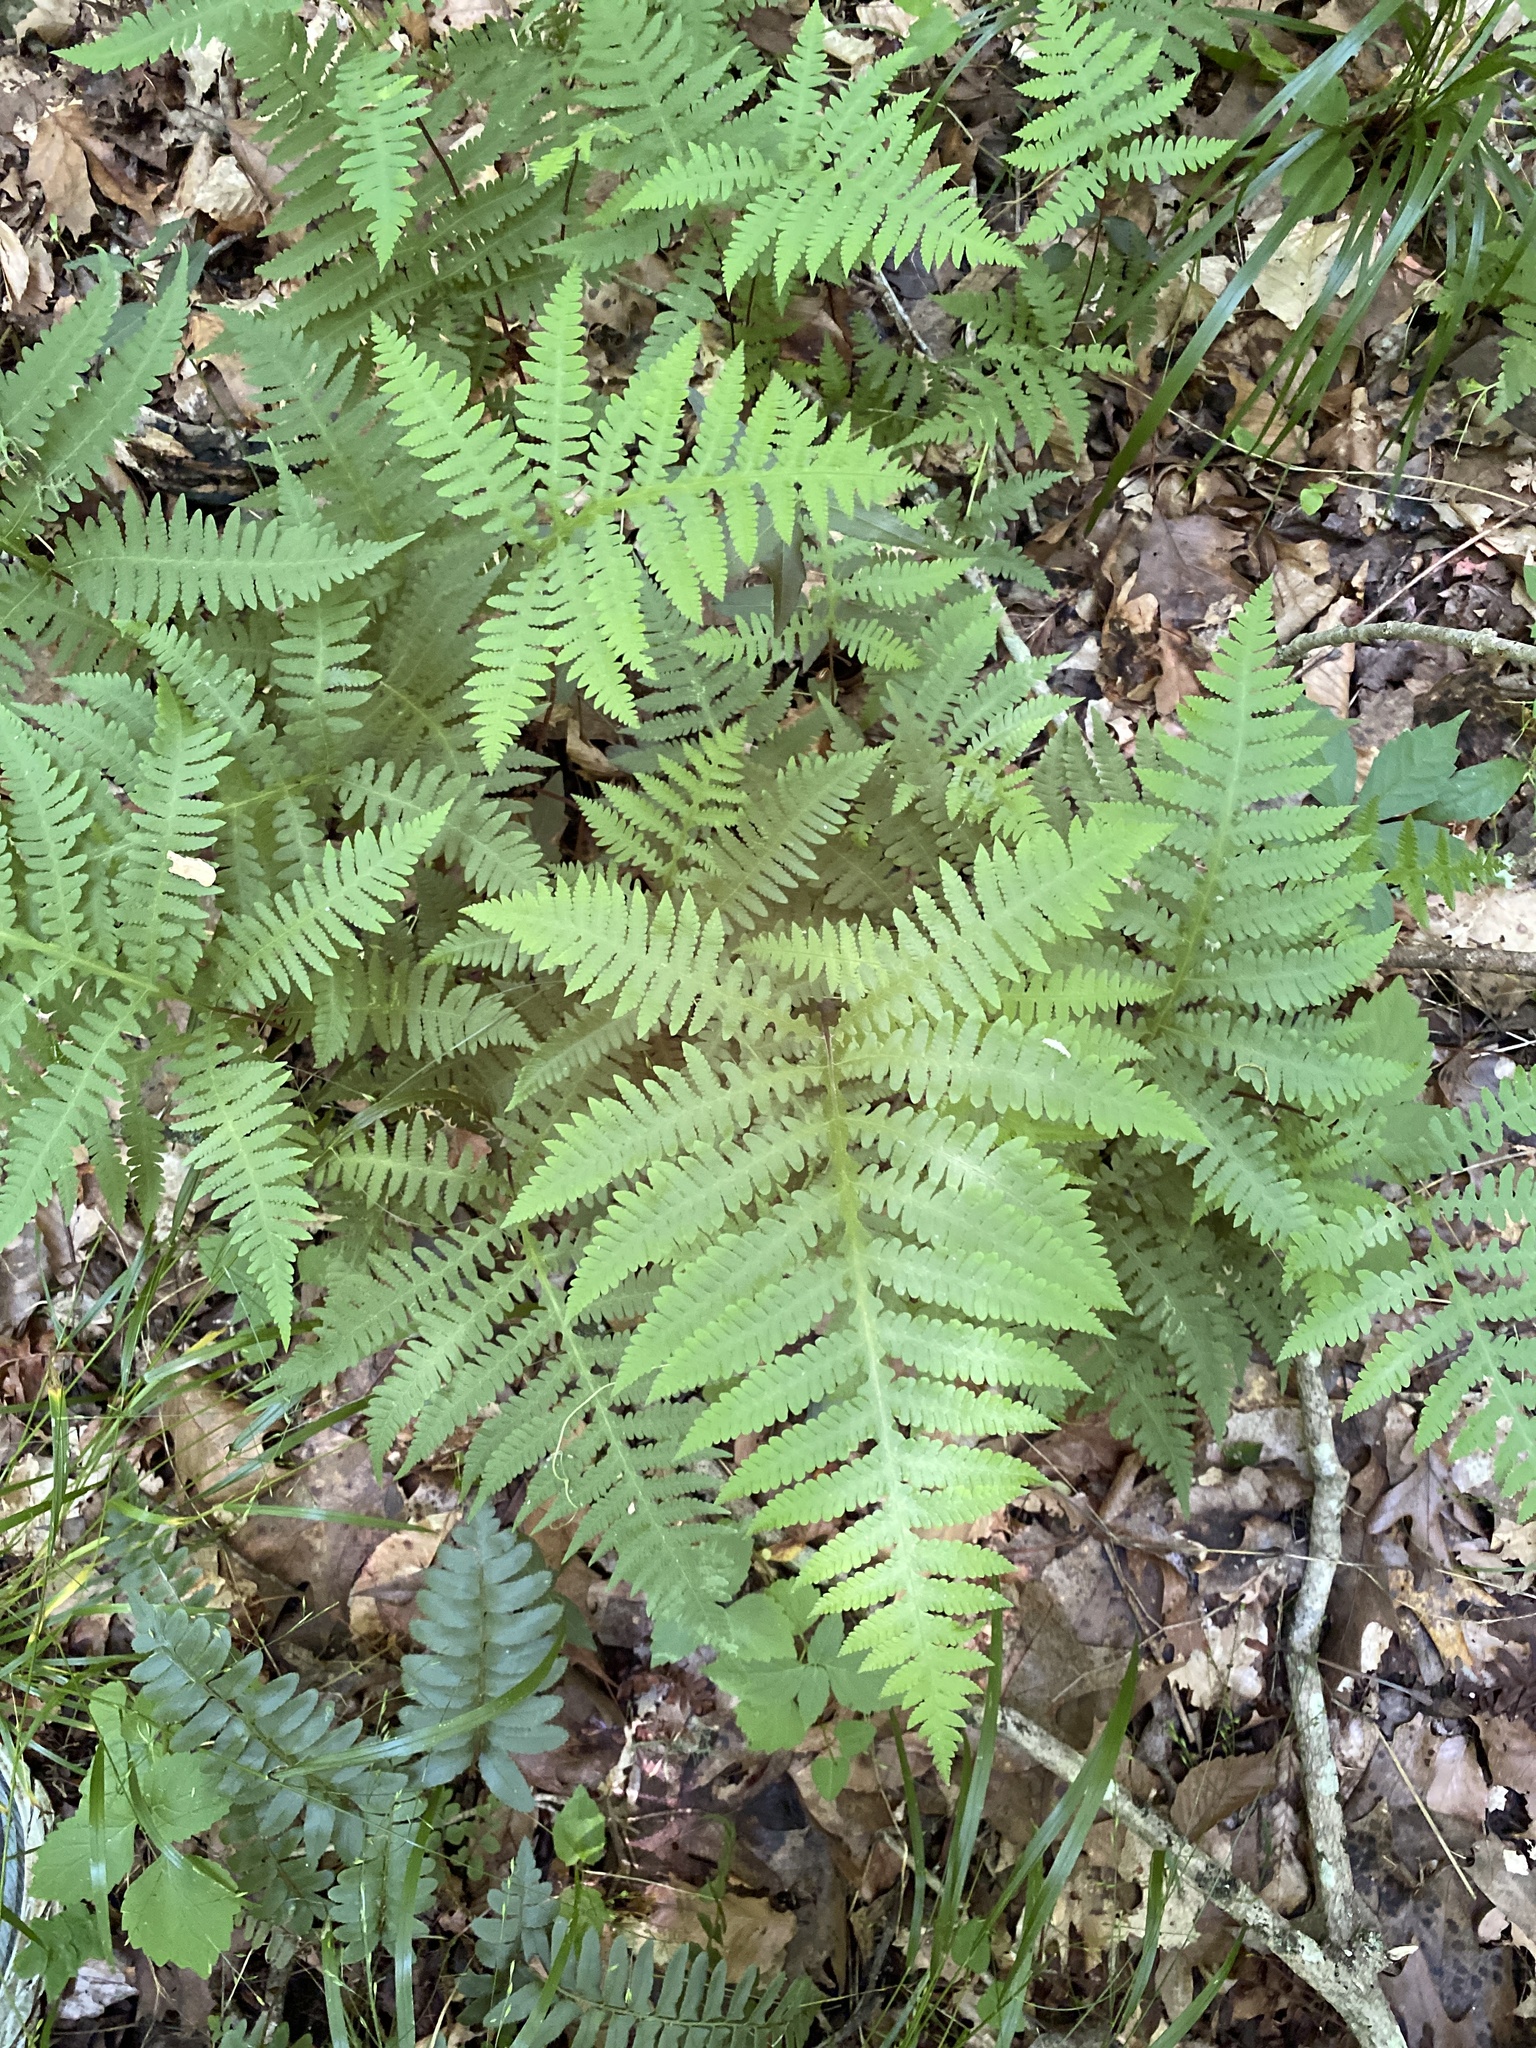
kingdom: Plantae
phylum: Tracheophyta
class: Polypodiopsida
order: Polypodiales
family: Thelypteridaceae
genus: Phegopteris
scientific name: Phegopteris hexagonoptera
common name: Broad beech fern
